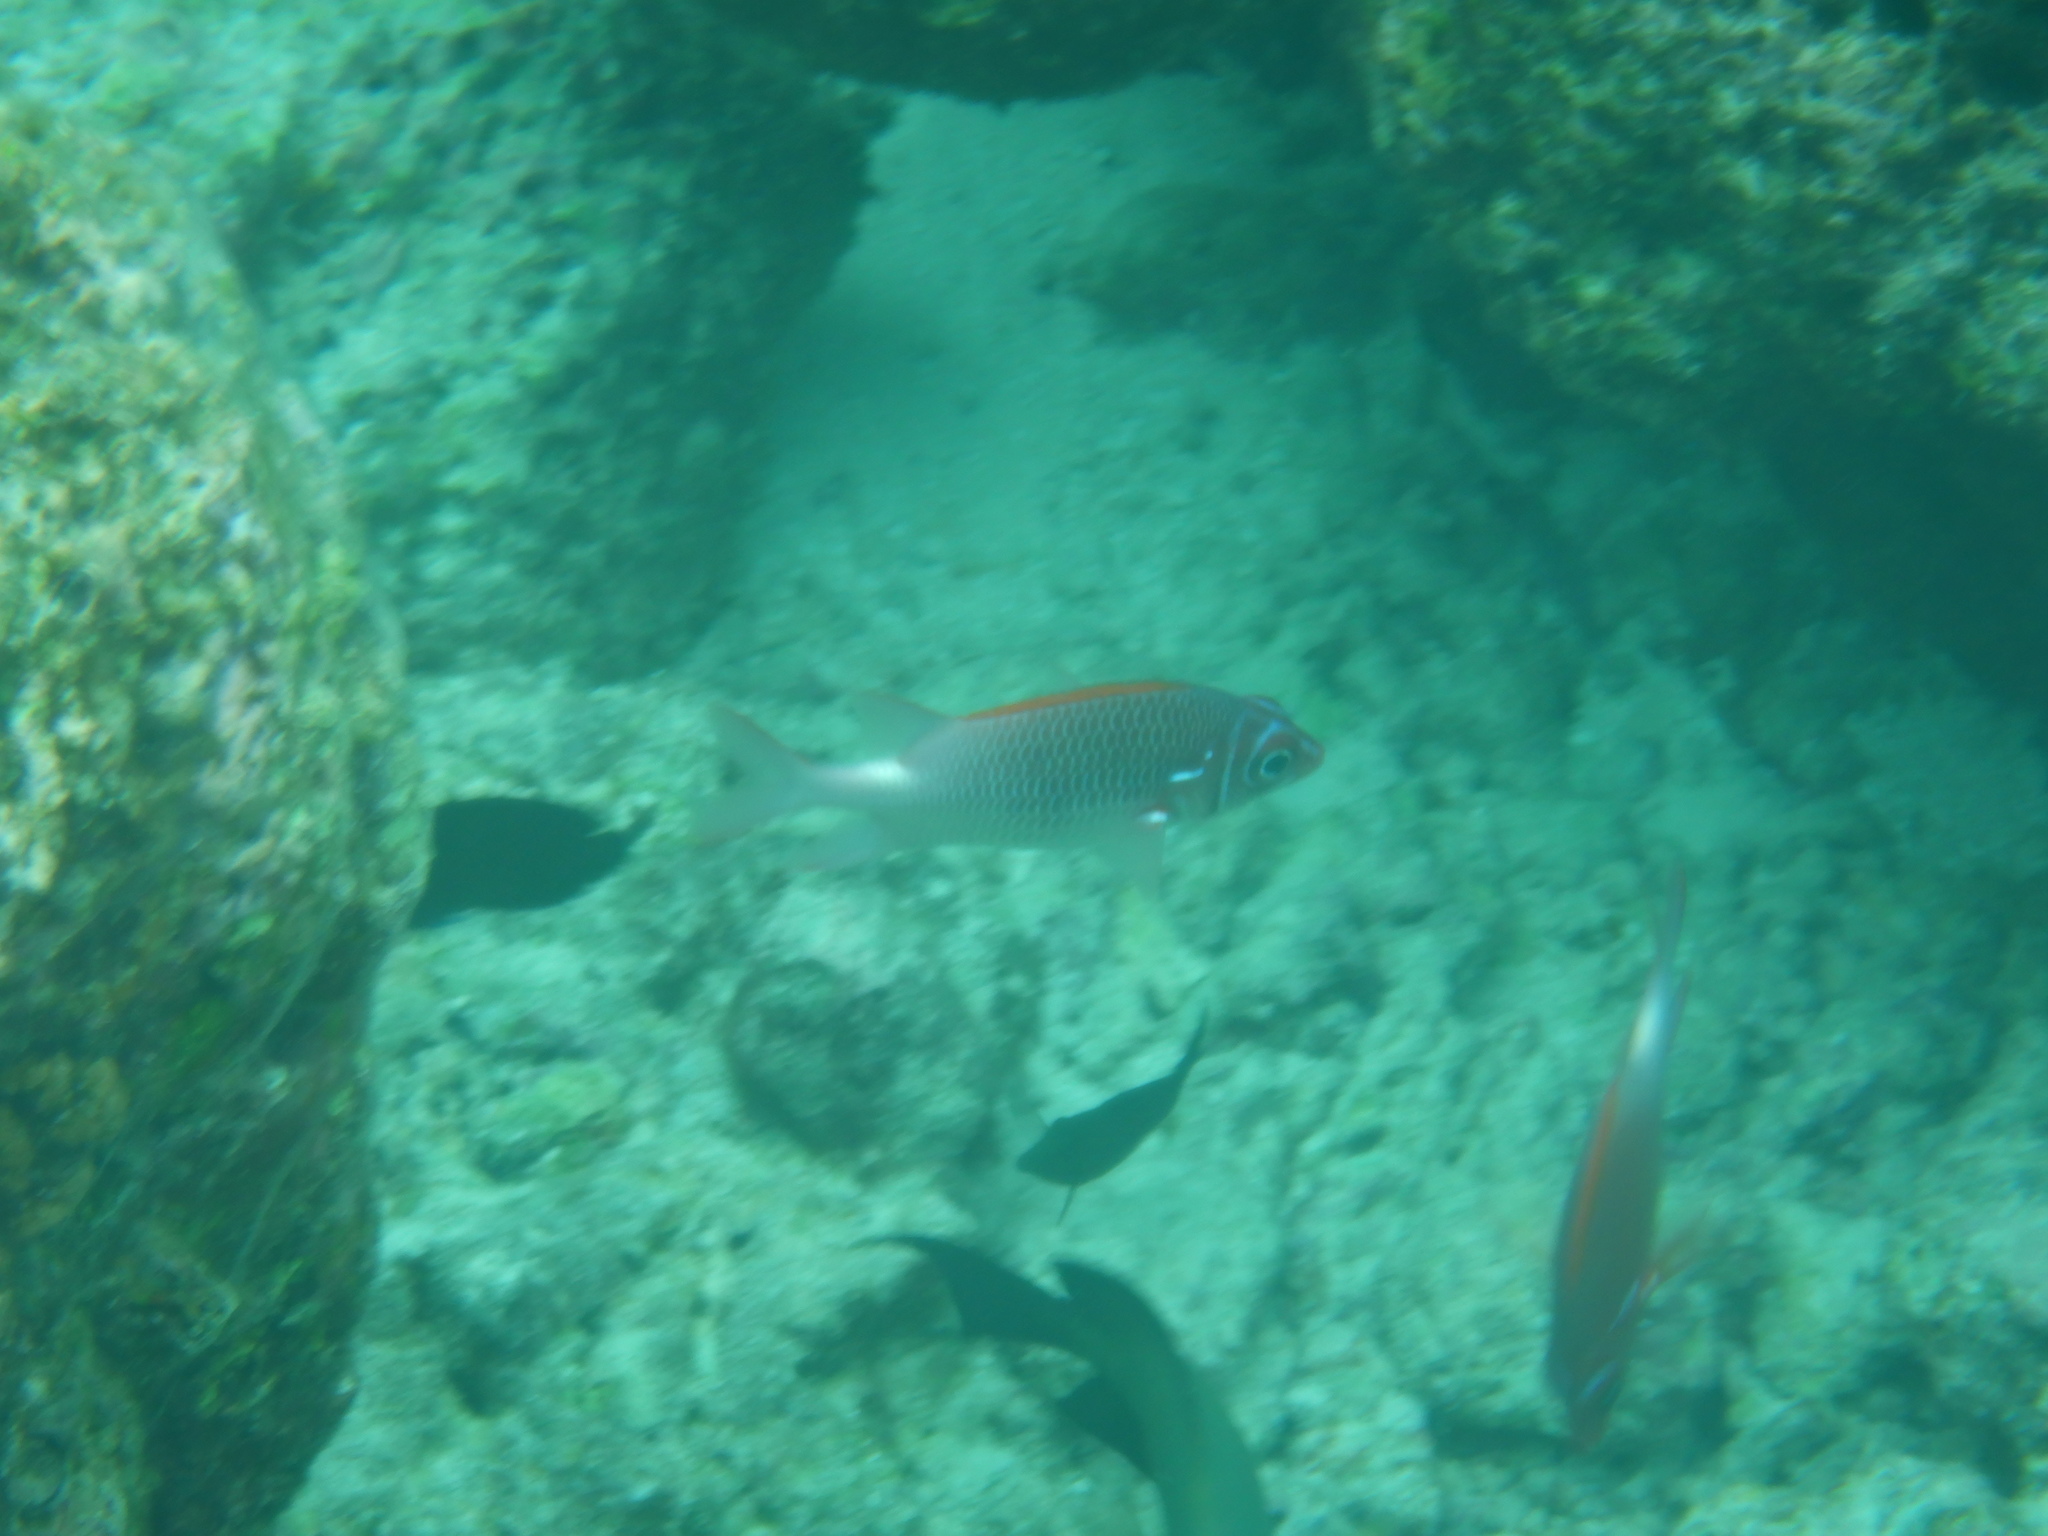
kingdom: Animalia
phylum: Chordata
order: Beryciformes
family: Holocentridae
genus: Sargocentron
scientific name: Sargocentron caudimaculatum
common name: Fanfin soldier
